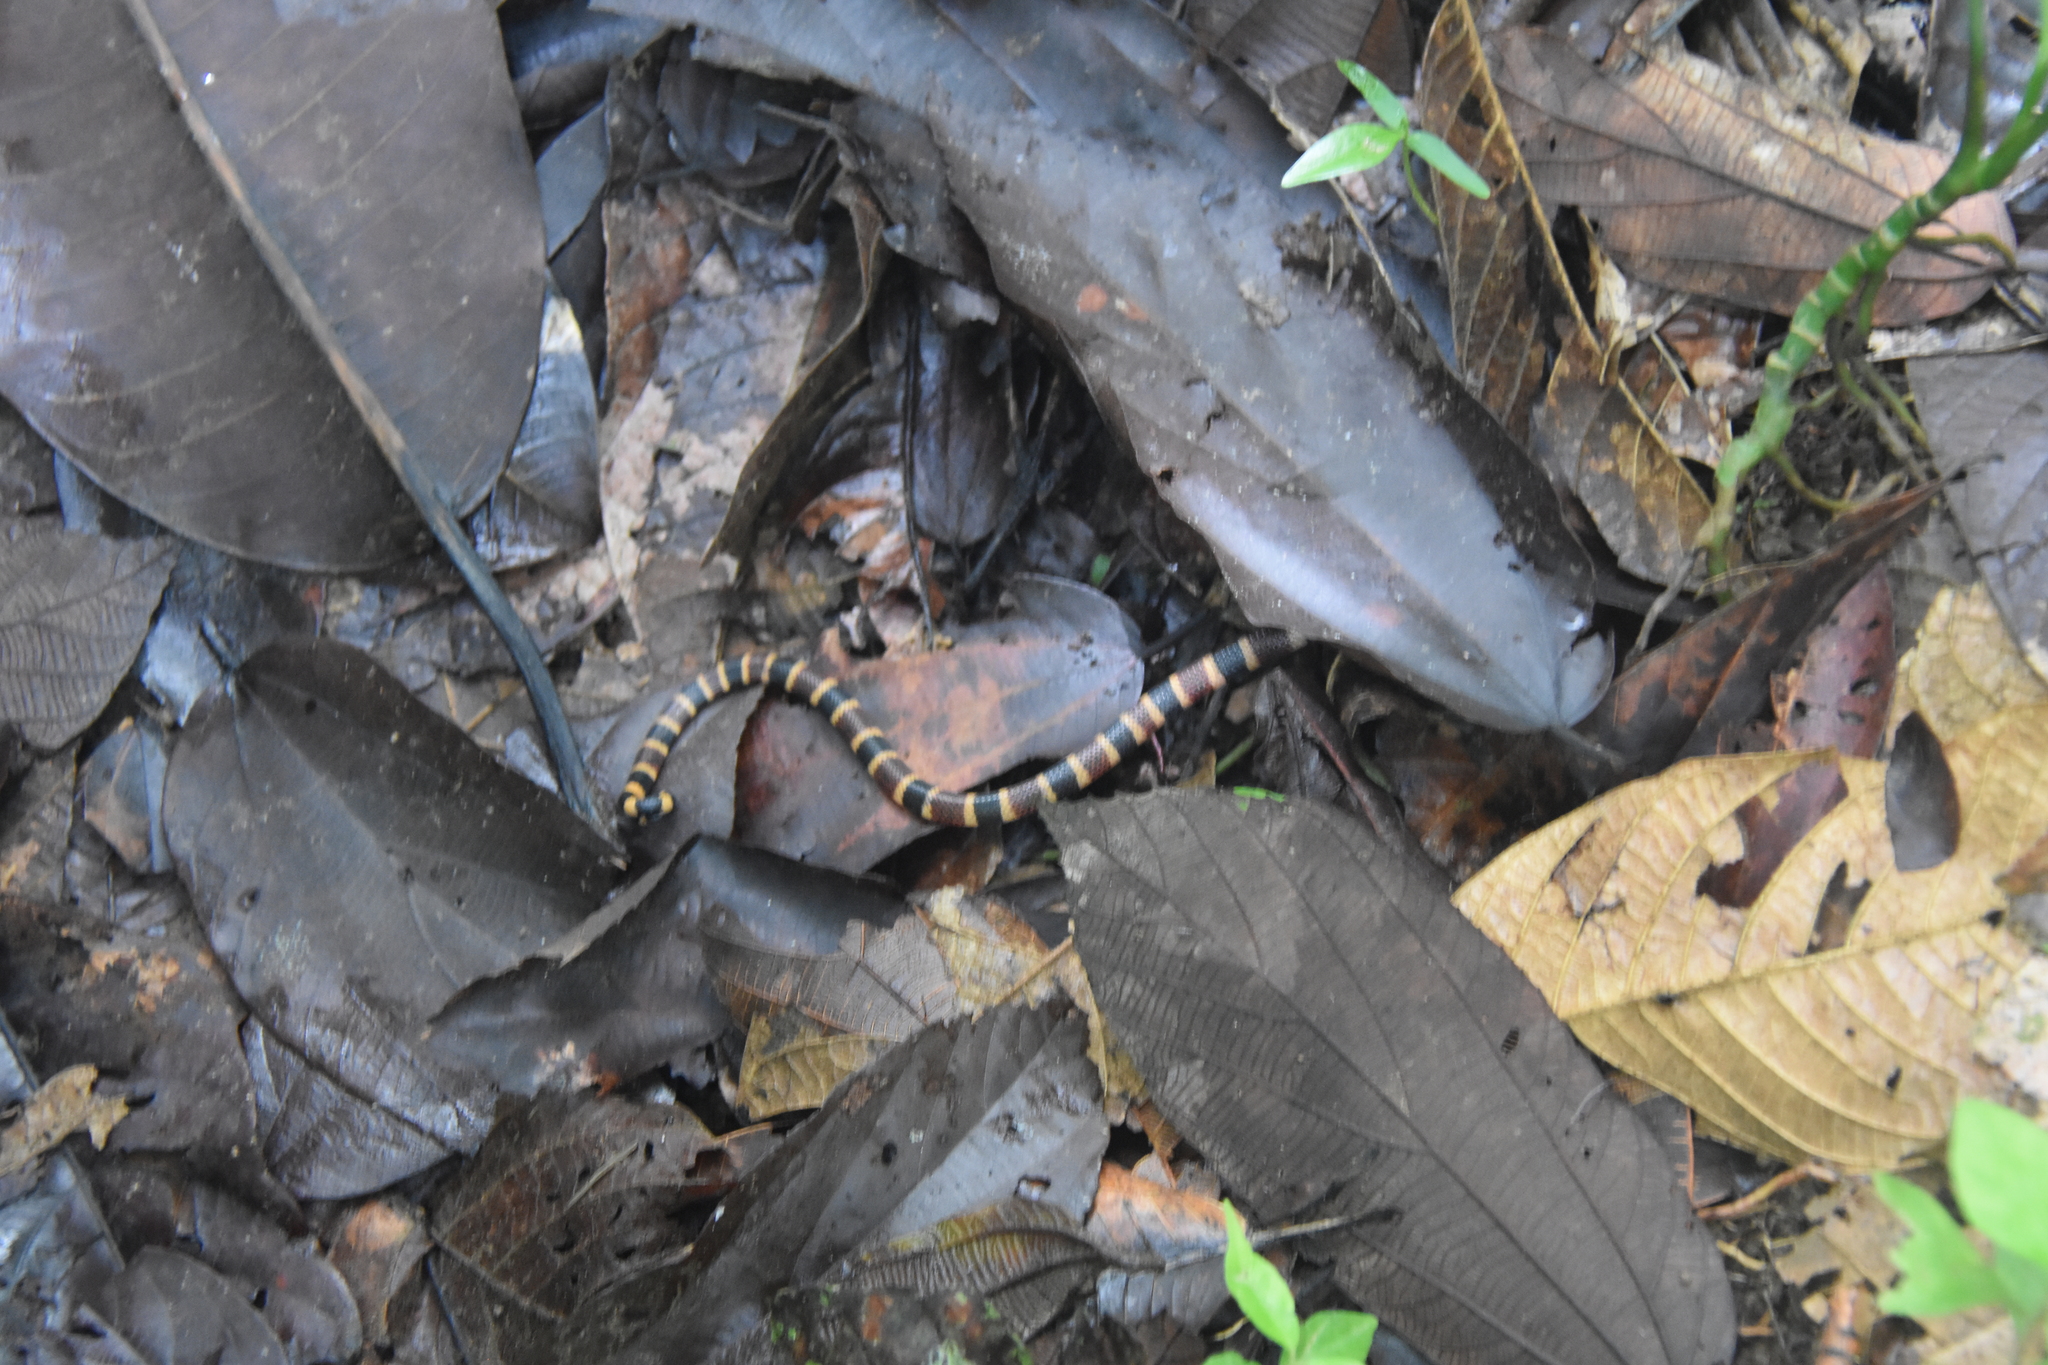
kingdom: Animalia
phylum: Chordata
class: Squamata
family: Elapidae
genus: Micrurus
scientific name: Micrurus alleni
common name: Allen's coral snake
